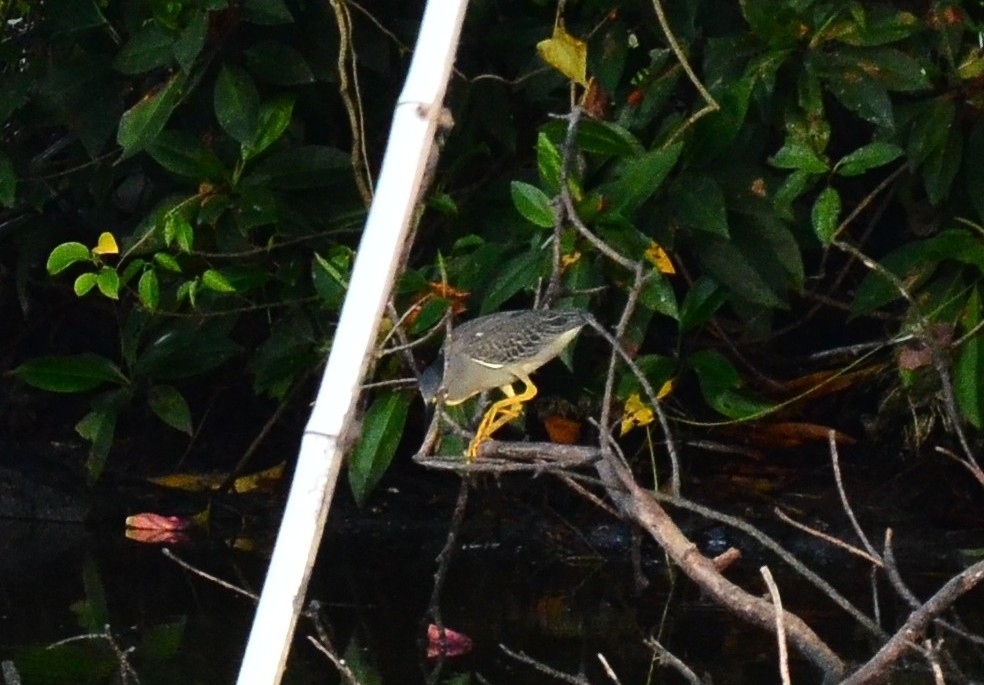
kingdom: Animalia
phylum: Chordata
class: Aves
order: Pelecaniformes
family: Ardeidae
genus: Butorides
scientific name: Butorides striata
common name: Striated heron
